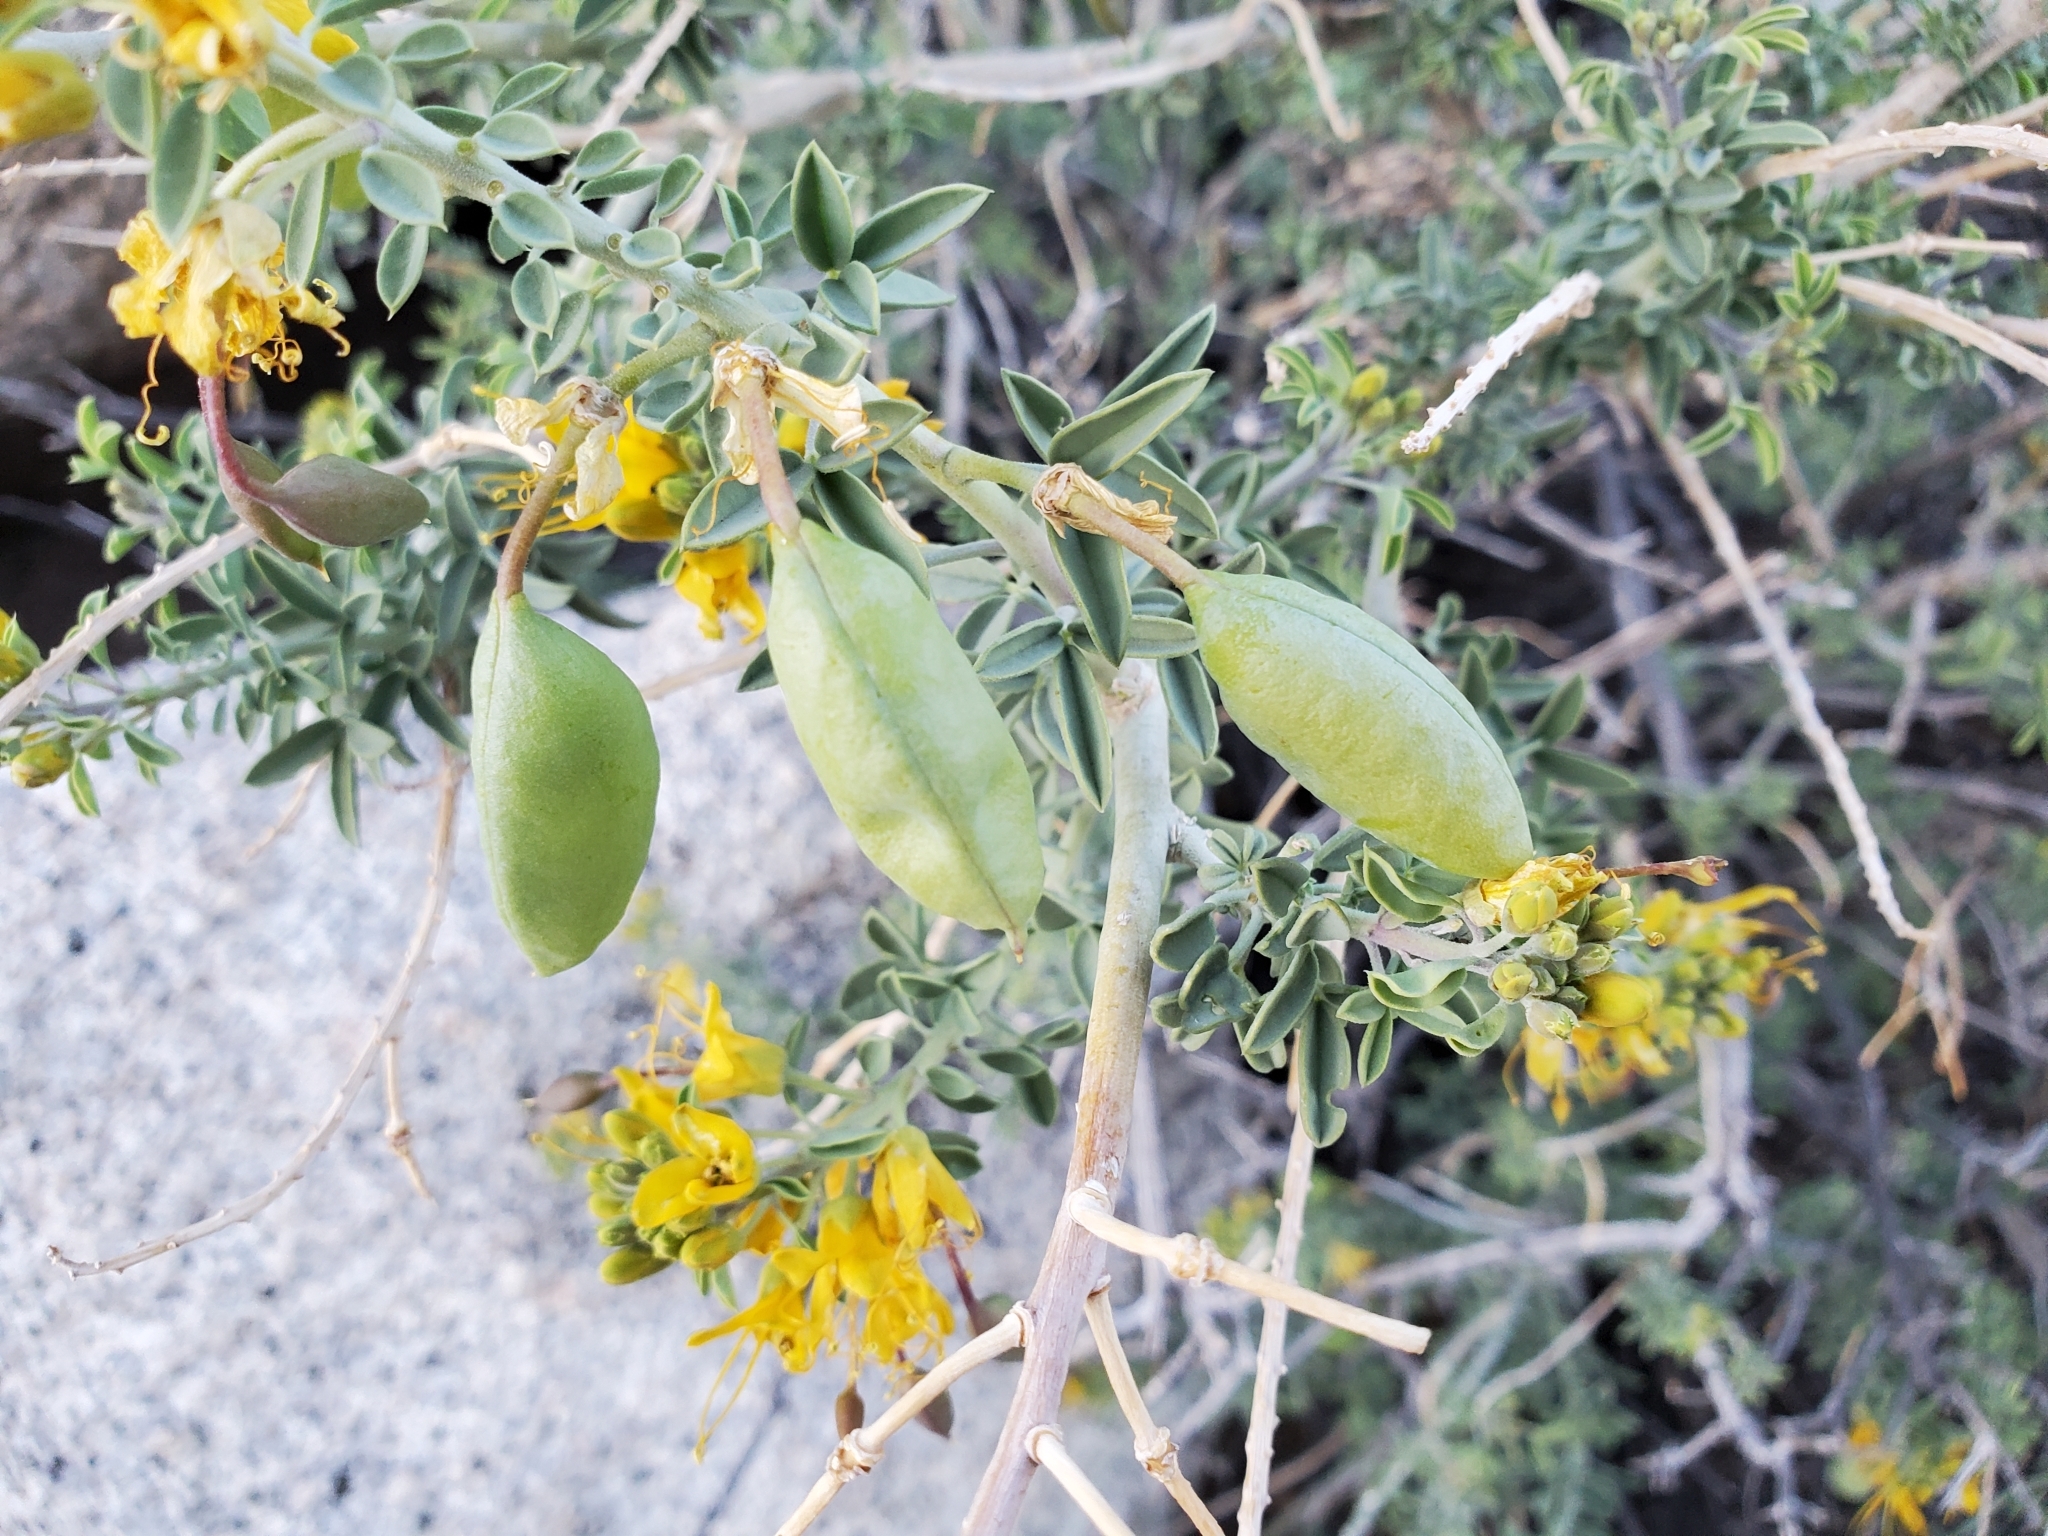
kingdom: Plantae
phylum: Tracheophyta
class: Magnoliopsida
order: Brassicales
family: Cleomaceae
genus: Cleomella
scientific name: Cleomella arborea
